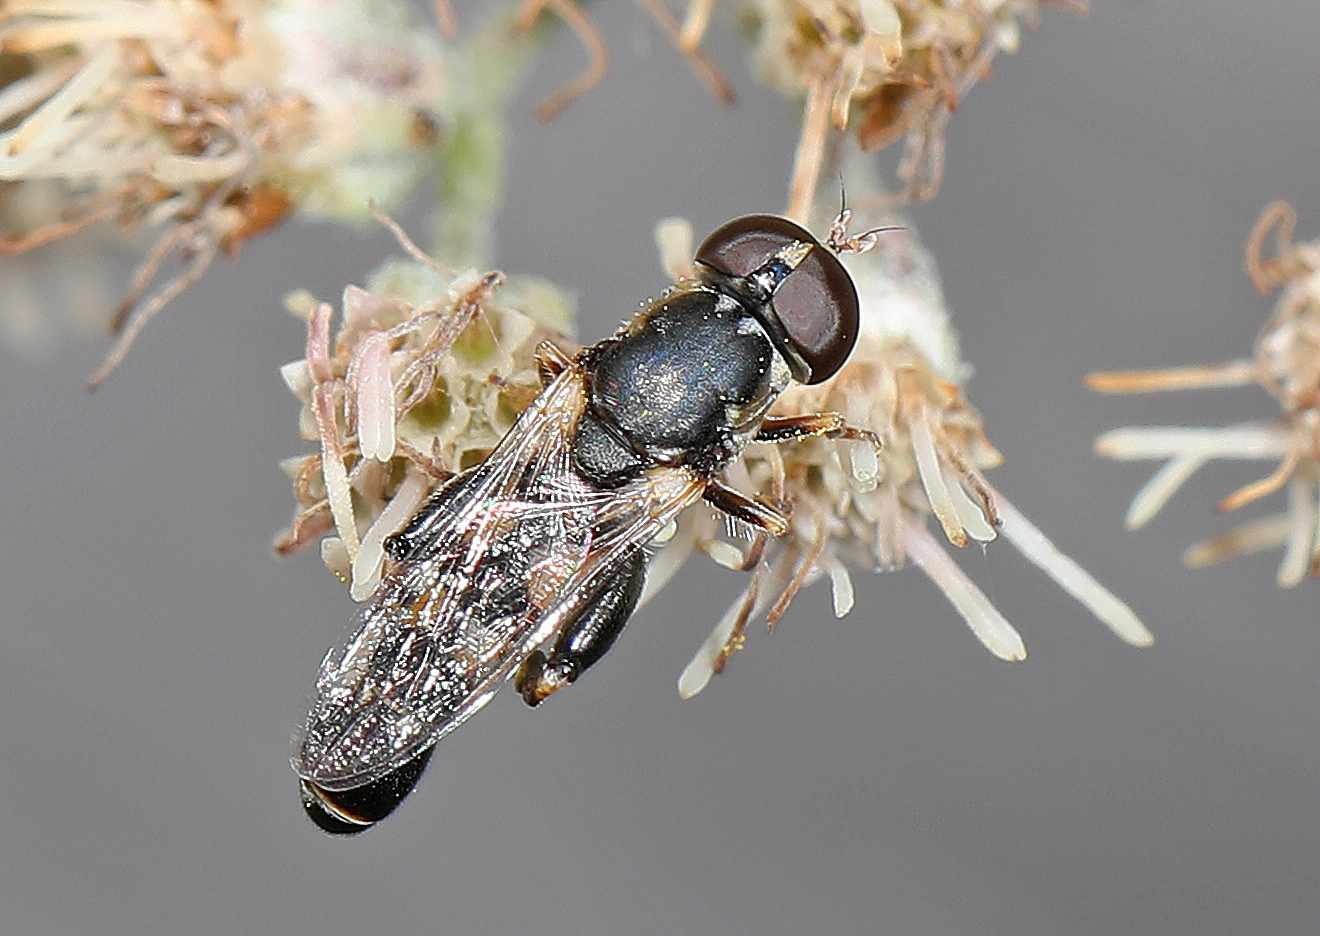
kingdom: Animalia
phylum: Arthropoda
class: Insecta
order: Diptera
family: Syrphidae
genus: Syritta
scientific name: Syritta pipiens
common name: Hover fly
